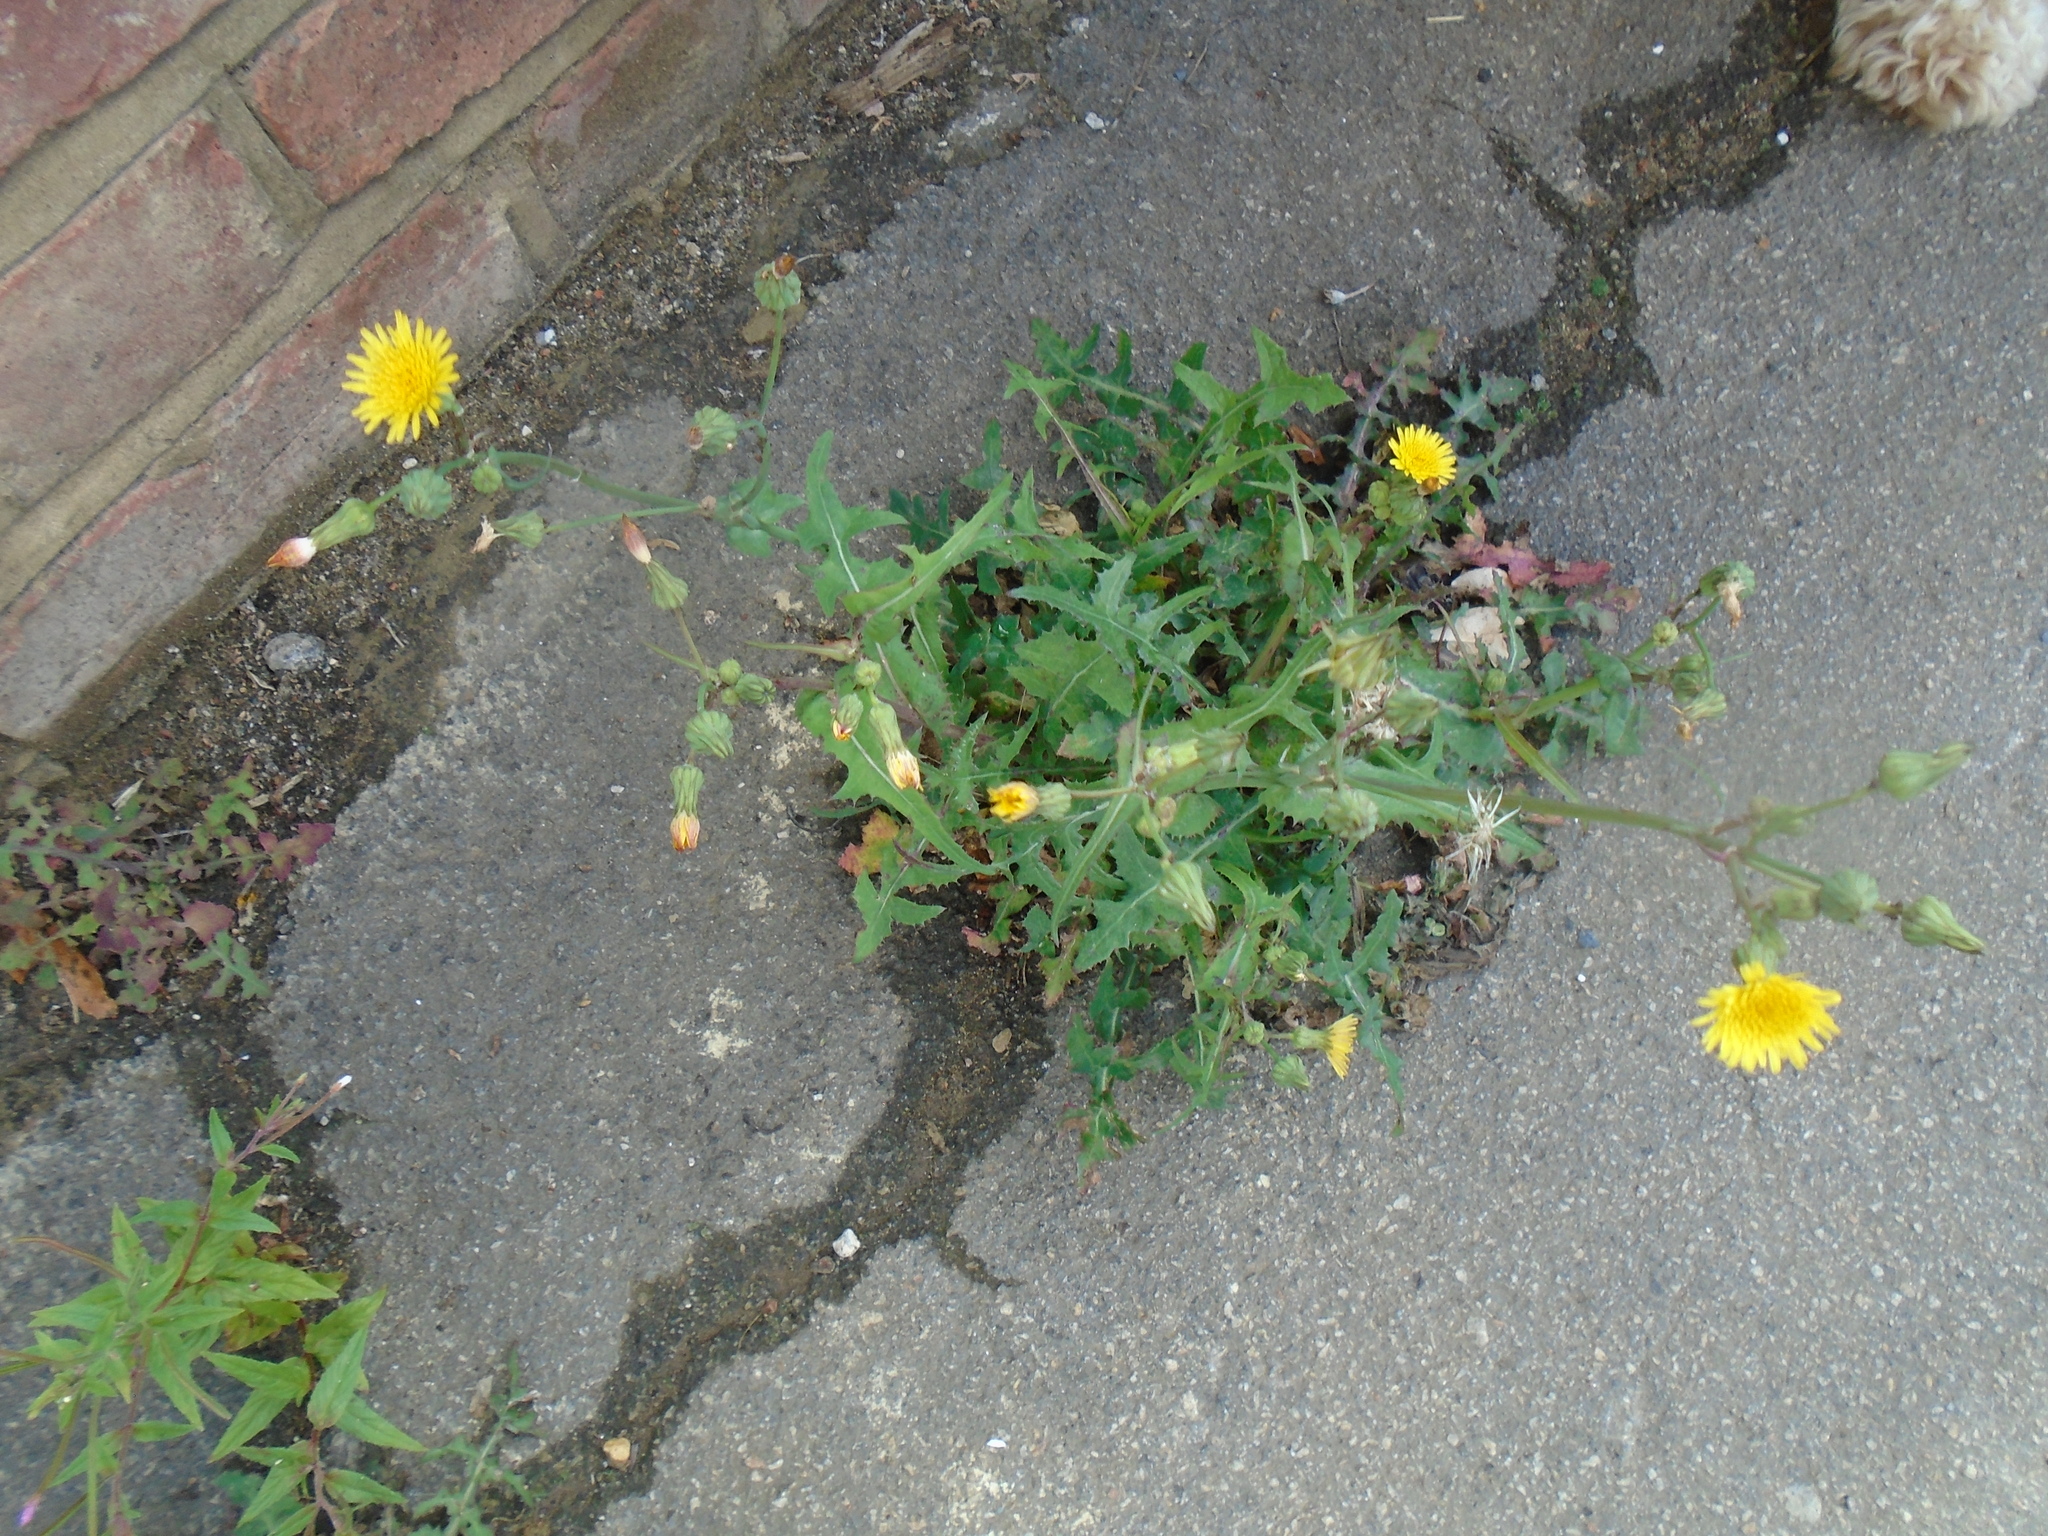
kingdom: Plantae
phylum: Tracheophyta
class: Magnoliopsida
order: Asterales
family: Asteraceae
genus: Sonchus
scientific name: Sonchus oleraceus
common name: Common sowthistle
